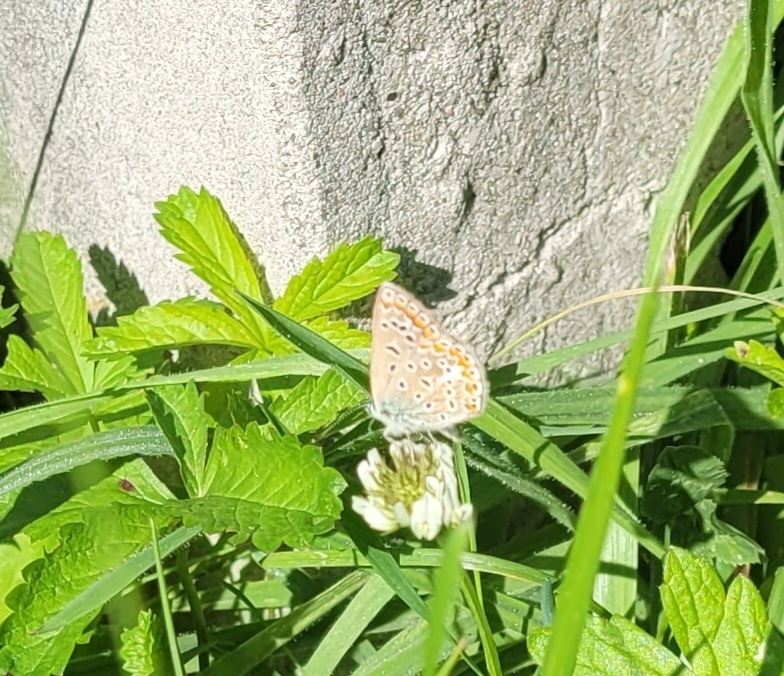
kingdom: Animalia
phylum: Arthropoda
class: Insecta
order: Lepidoptera
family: Lycaenidae
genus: Polyommatus
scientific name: Polyommatus icarus
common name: Common blue
